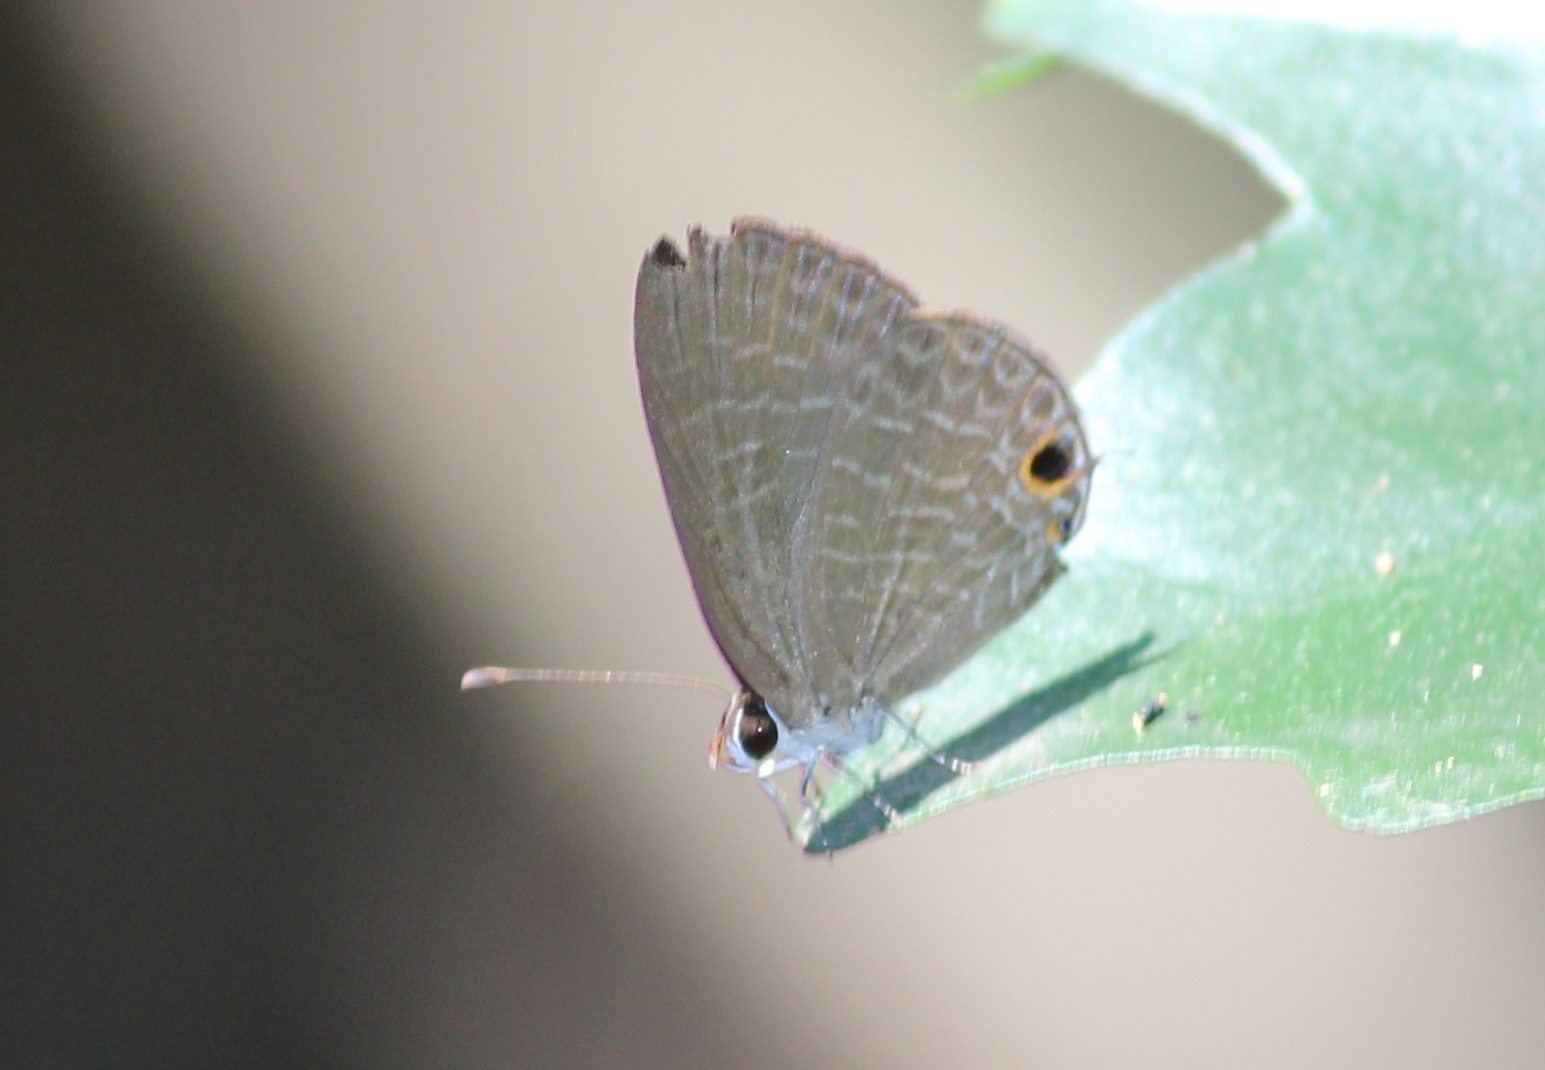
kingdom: Animalia
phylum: Arthropoda
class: Insecta
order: Lepidoptera
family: Lycaenidae
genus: Jamides
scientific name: Jamides bochus
